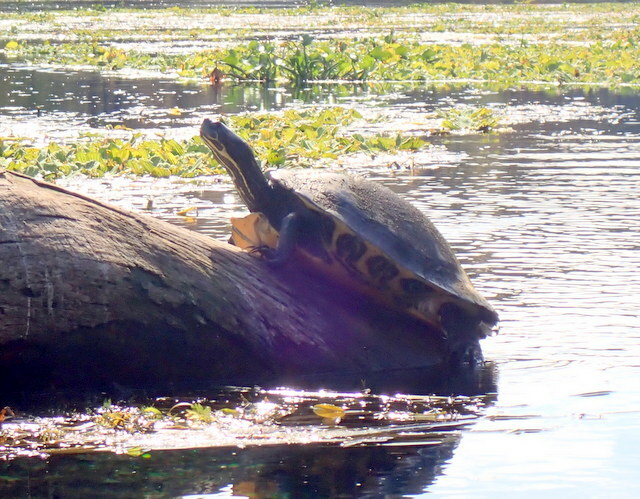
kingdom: Animalia
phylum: Chordata
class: Testudines
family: Emydidae
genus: Pseudemys
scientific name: Pseudemys concinna
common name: Eastern river cooter
